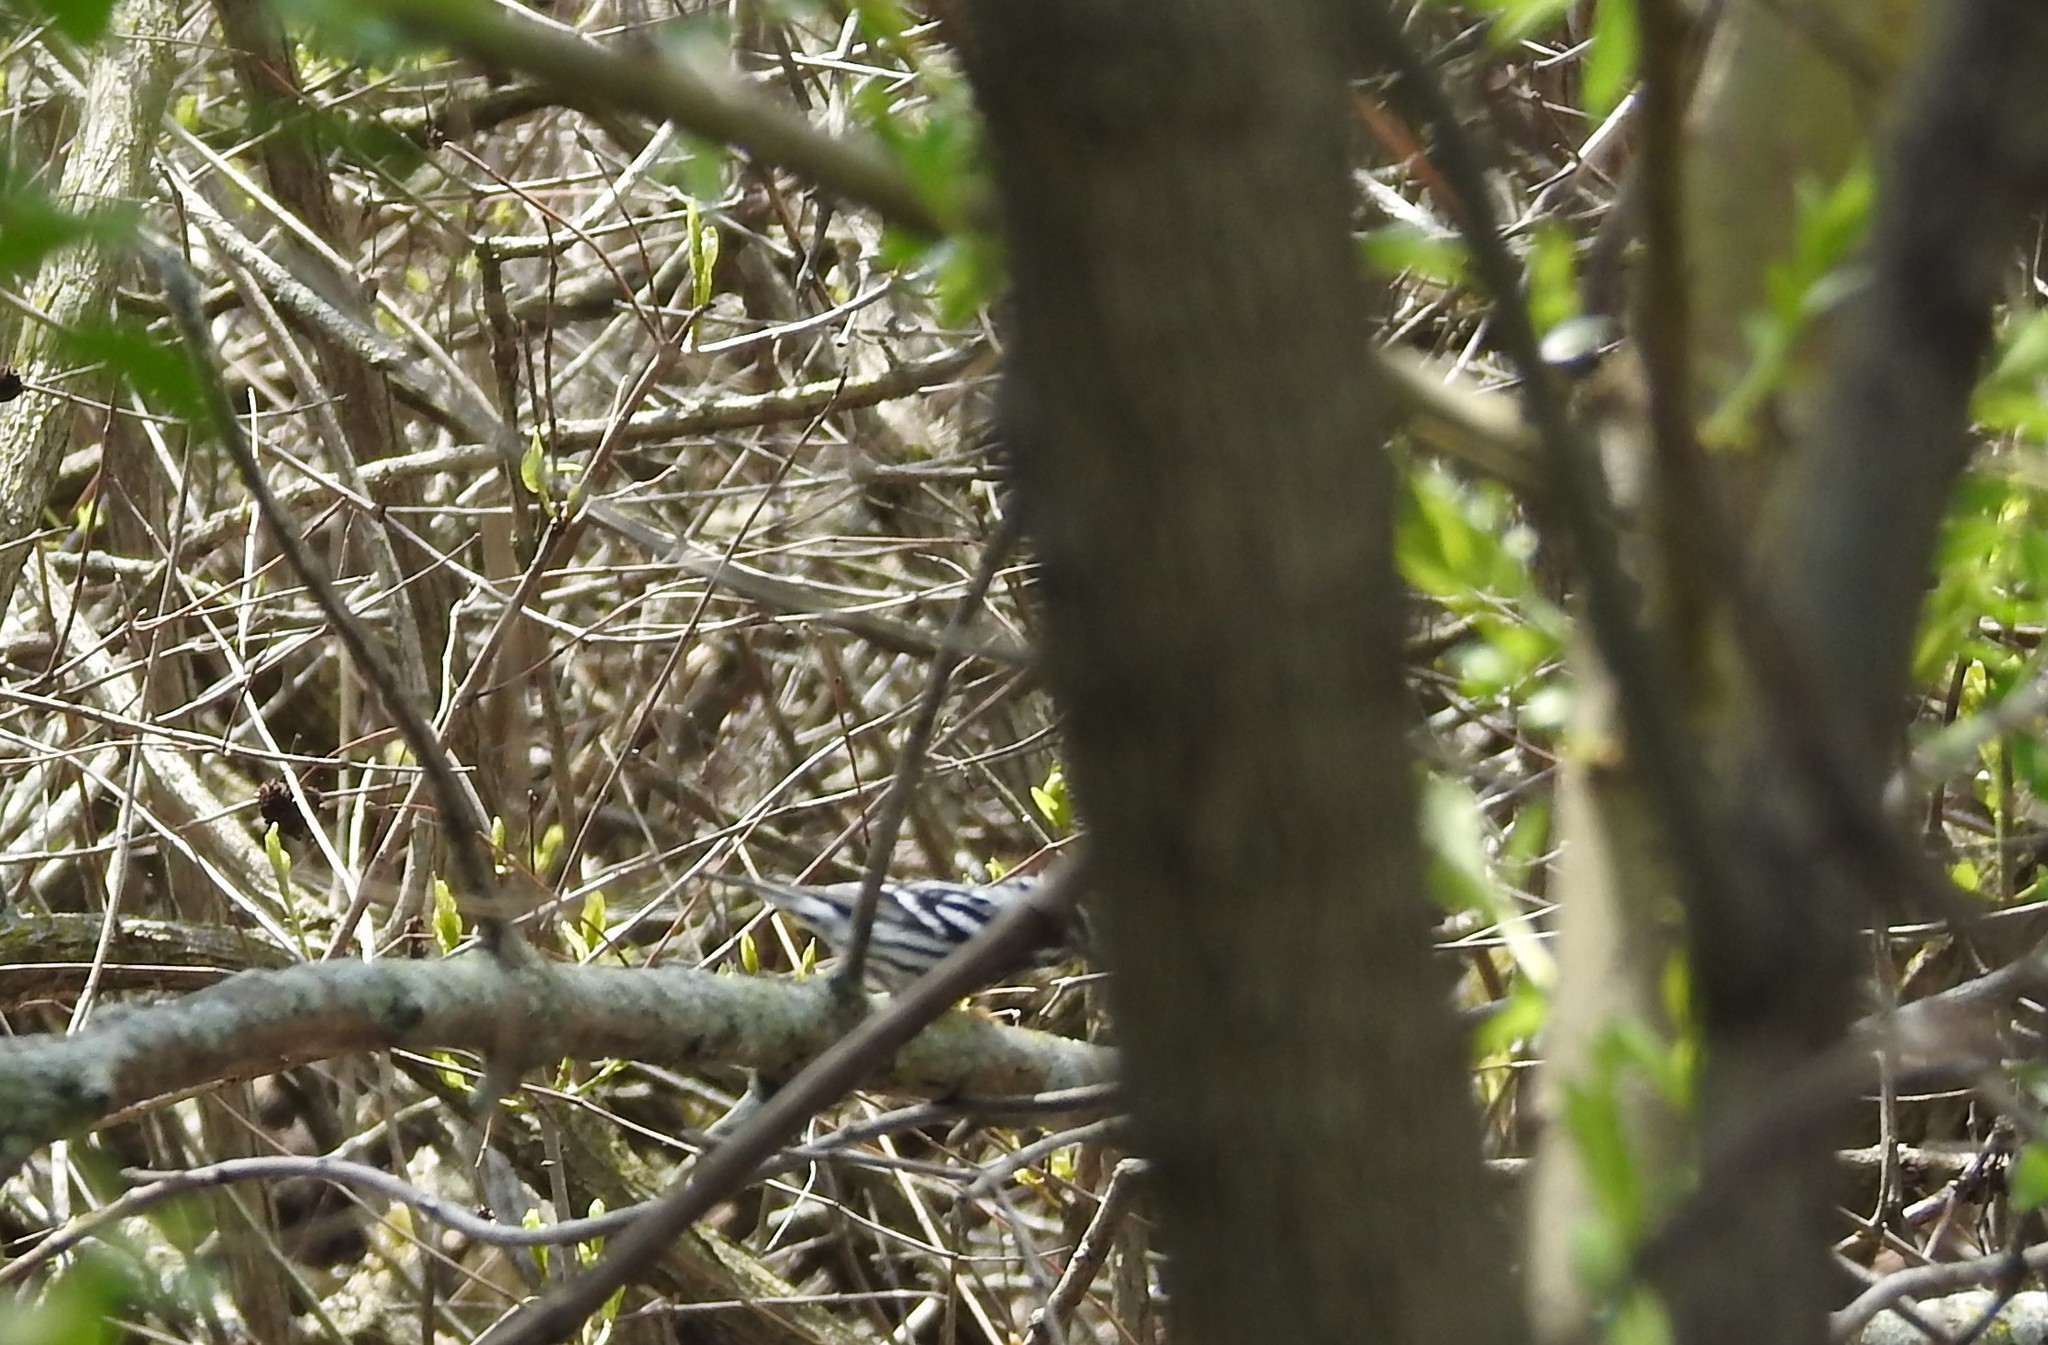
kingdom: Animalia
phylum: Chordata
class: Aves
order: Passeriformes
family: Parulidae
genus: Mniotilta
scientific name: Mniotilta varia
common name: Black-and-white warbler
